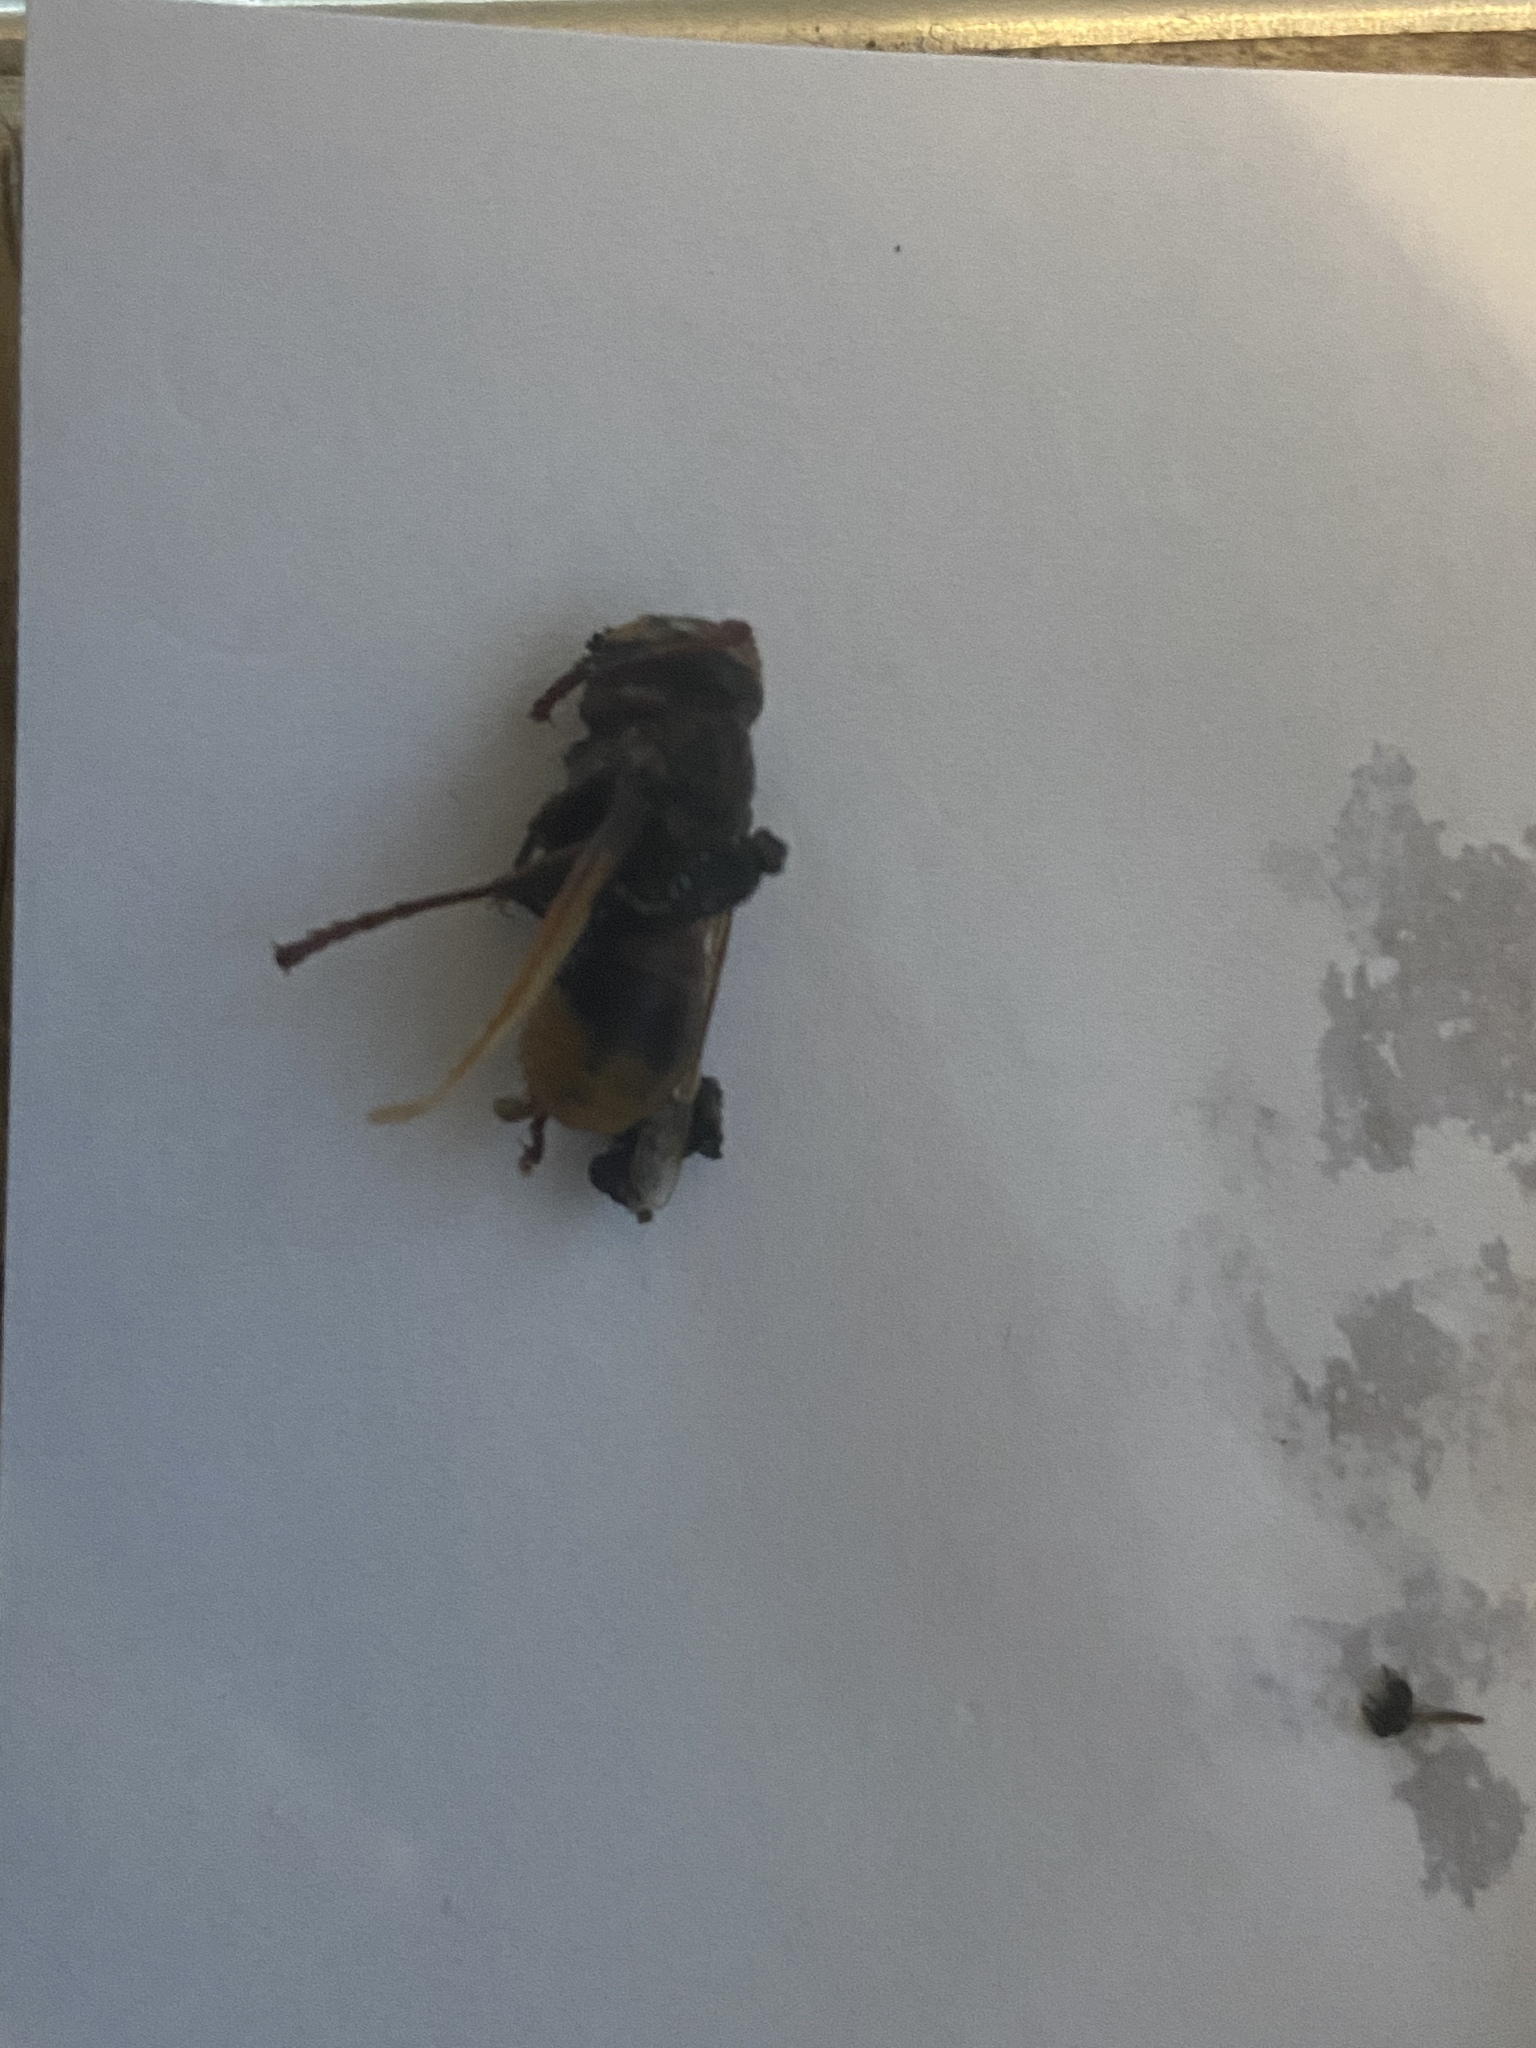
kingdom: Animalia
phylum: Arthropoda
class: Insecta
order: Hymenoptera
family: Vespidae
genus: Vespa
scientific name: Vespa crabro
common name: Hornet
